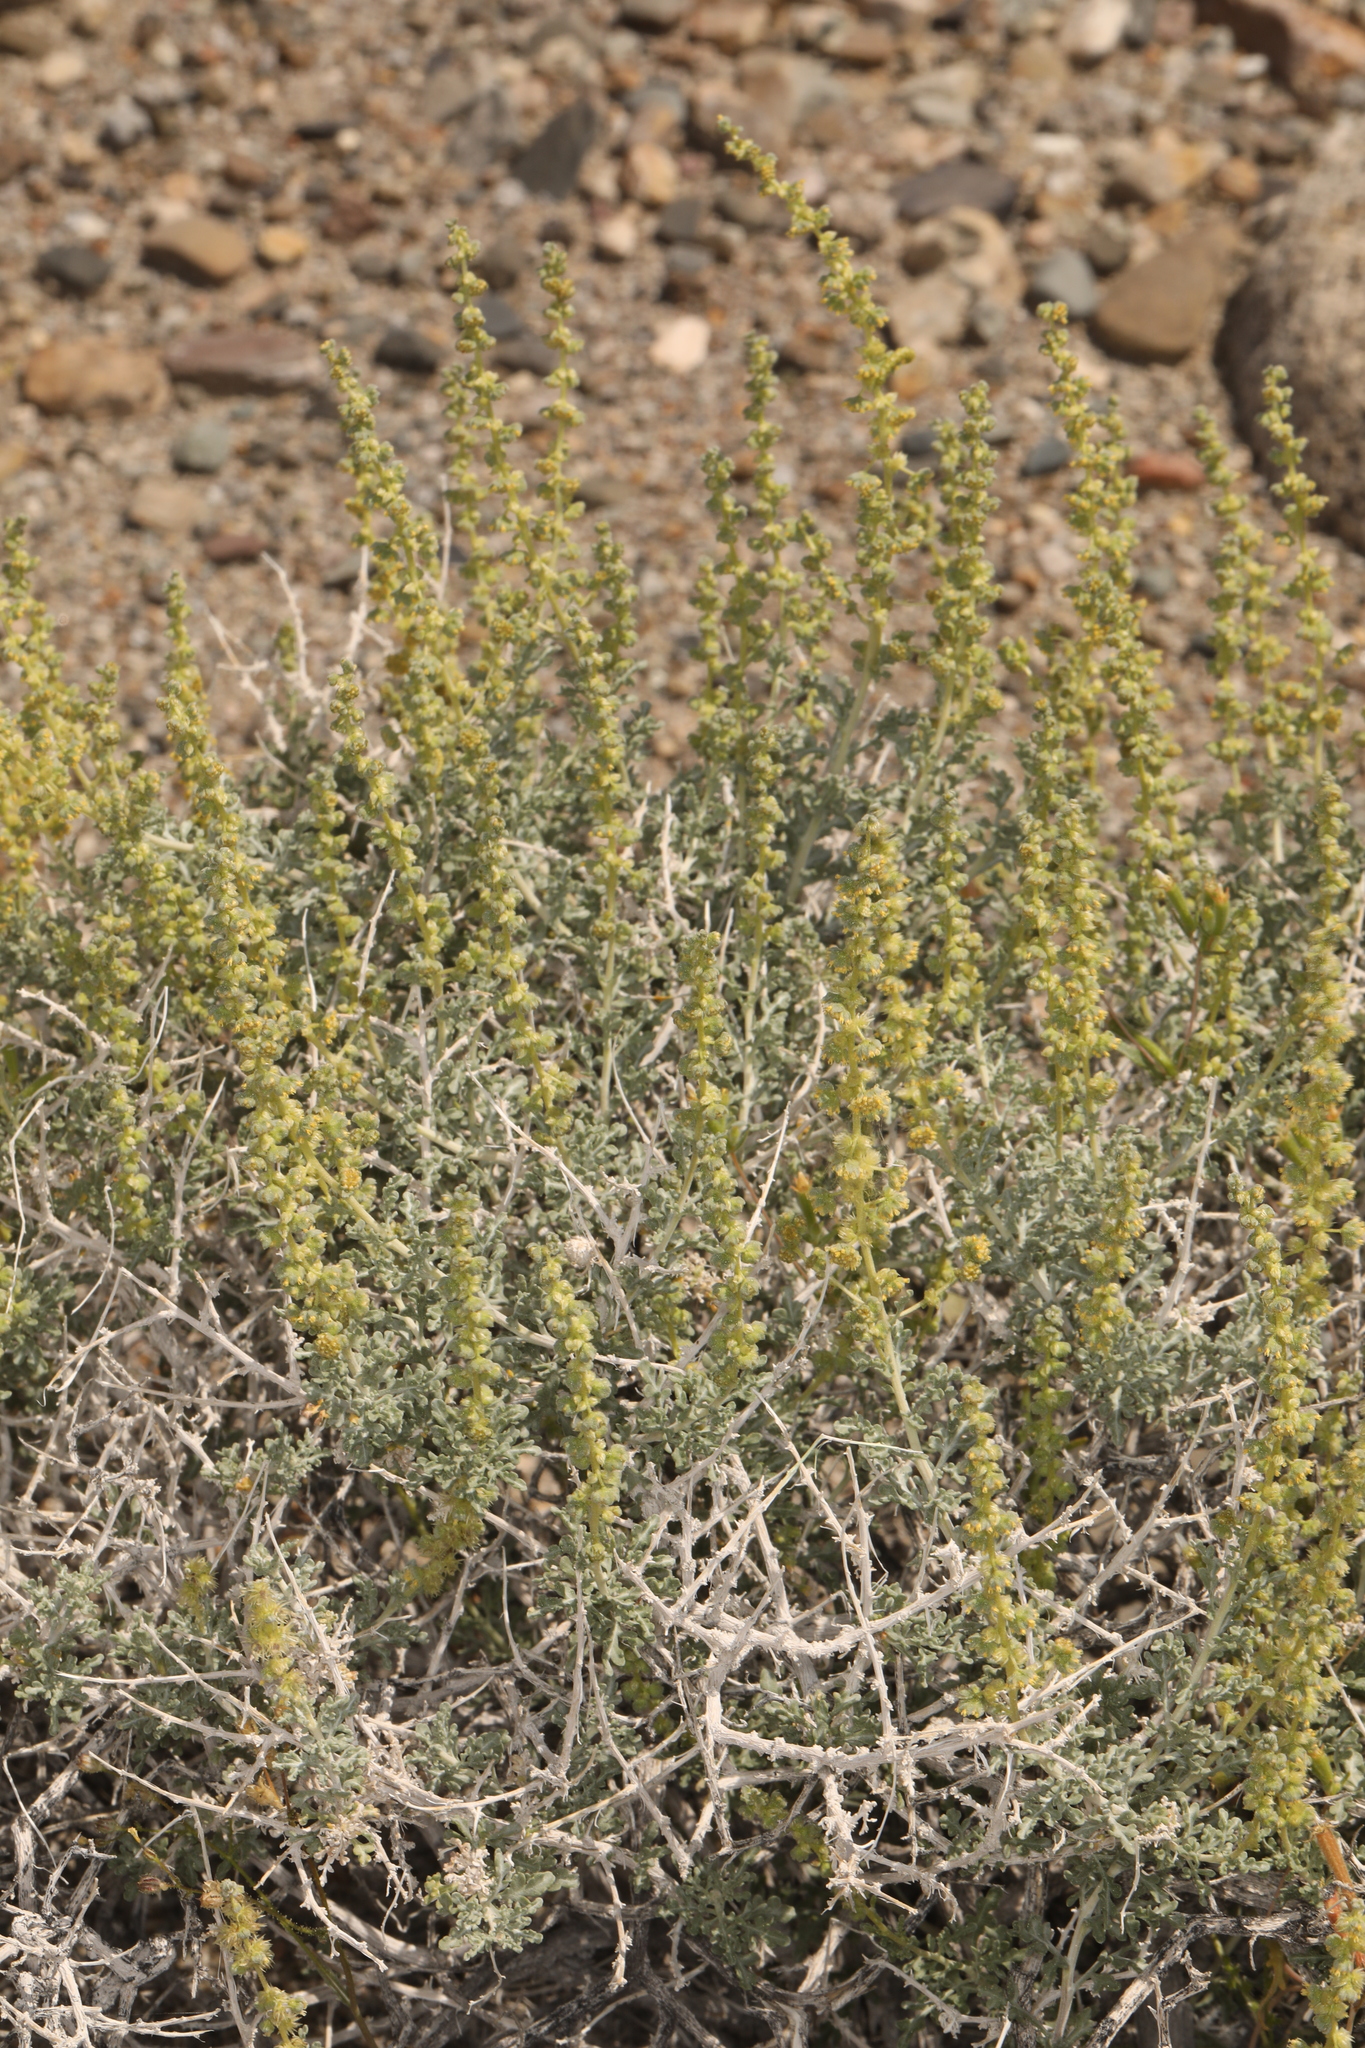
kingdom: Plantae
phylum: Tracheophyta
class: Magnoliopsida
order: Asterales
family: Asteraceae
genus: Ambrosia
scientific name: Ambrosia dumosa
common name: Bur-sage
